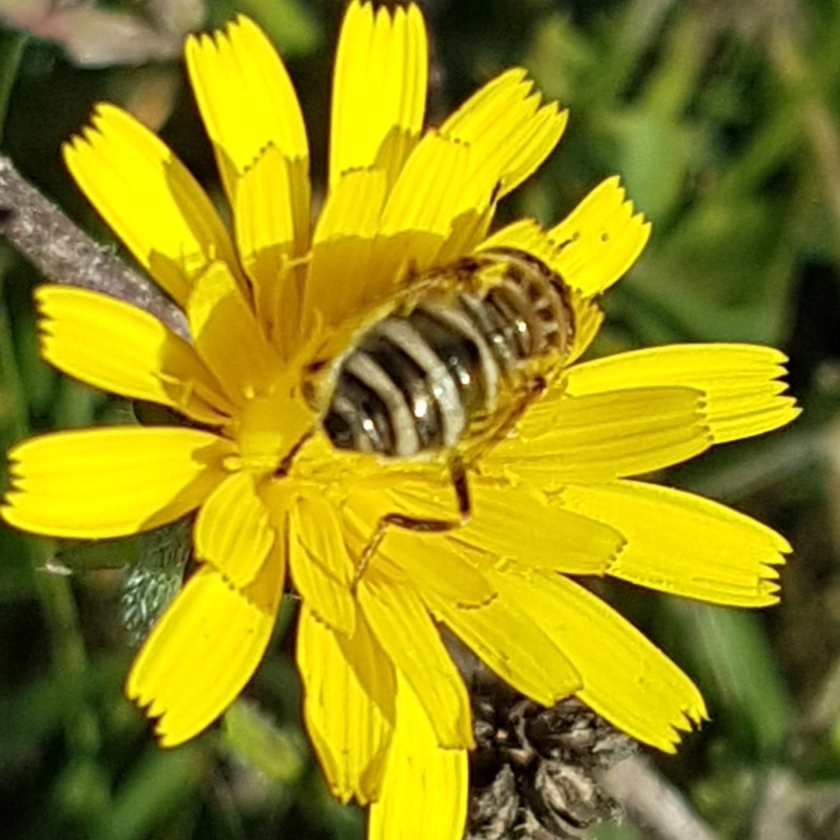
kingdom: Animalia
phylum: Arthropoda
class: Insecta
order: Diptera
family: Syrphidae
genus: Eristalinus
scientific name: Eristalinus megacephalus
